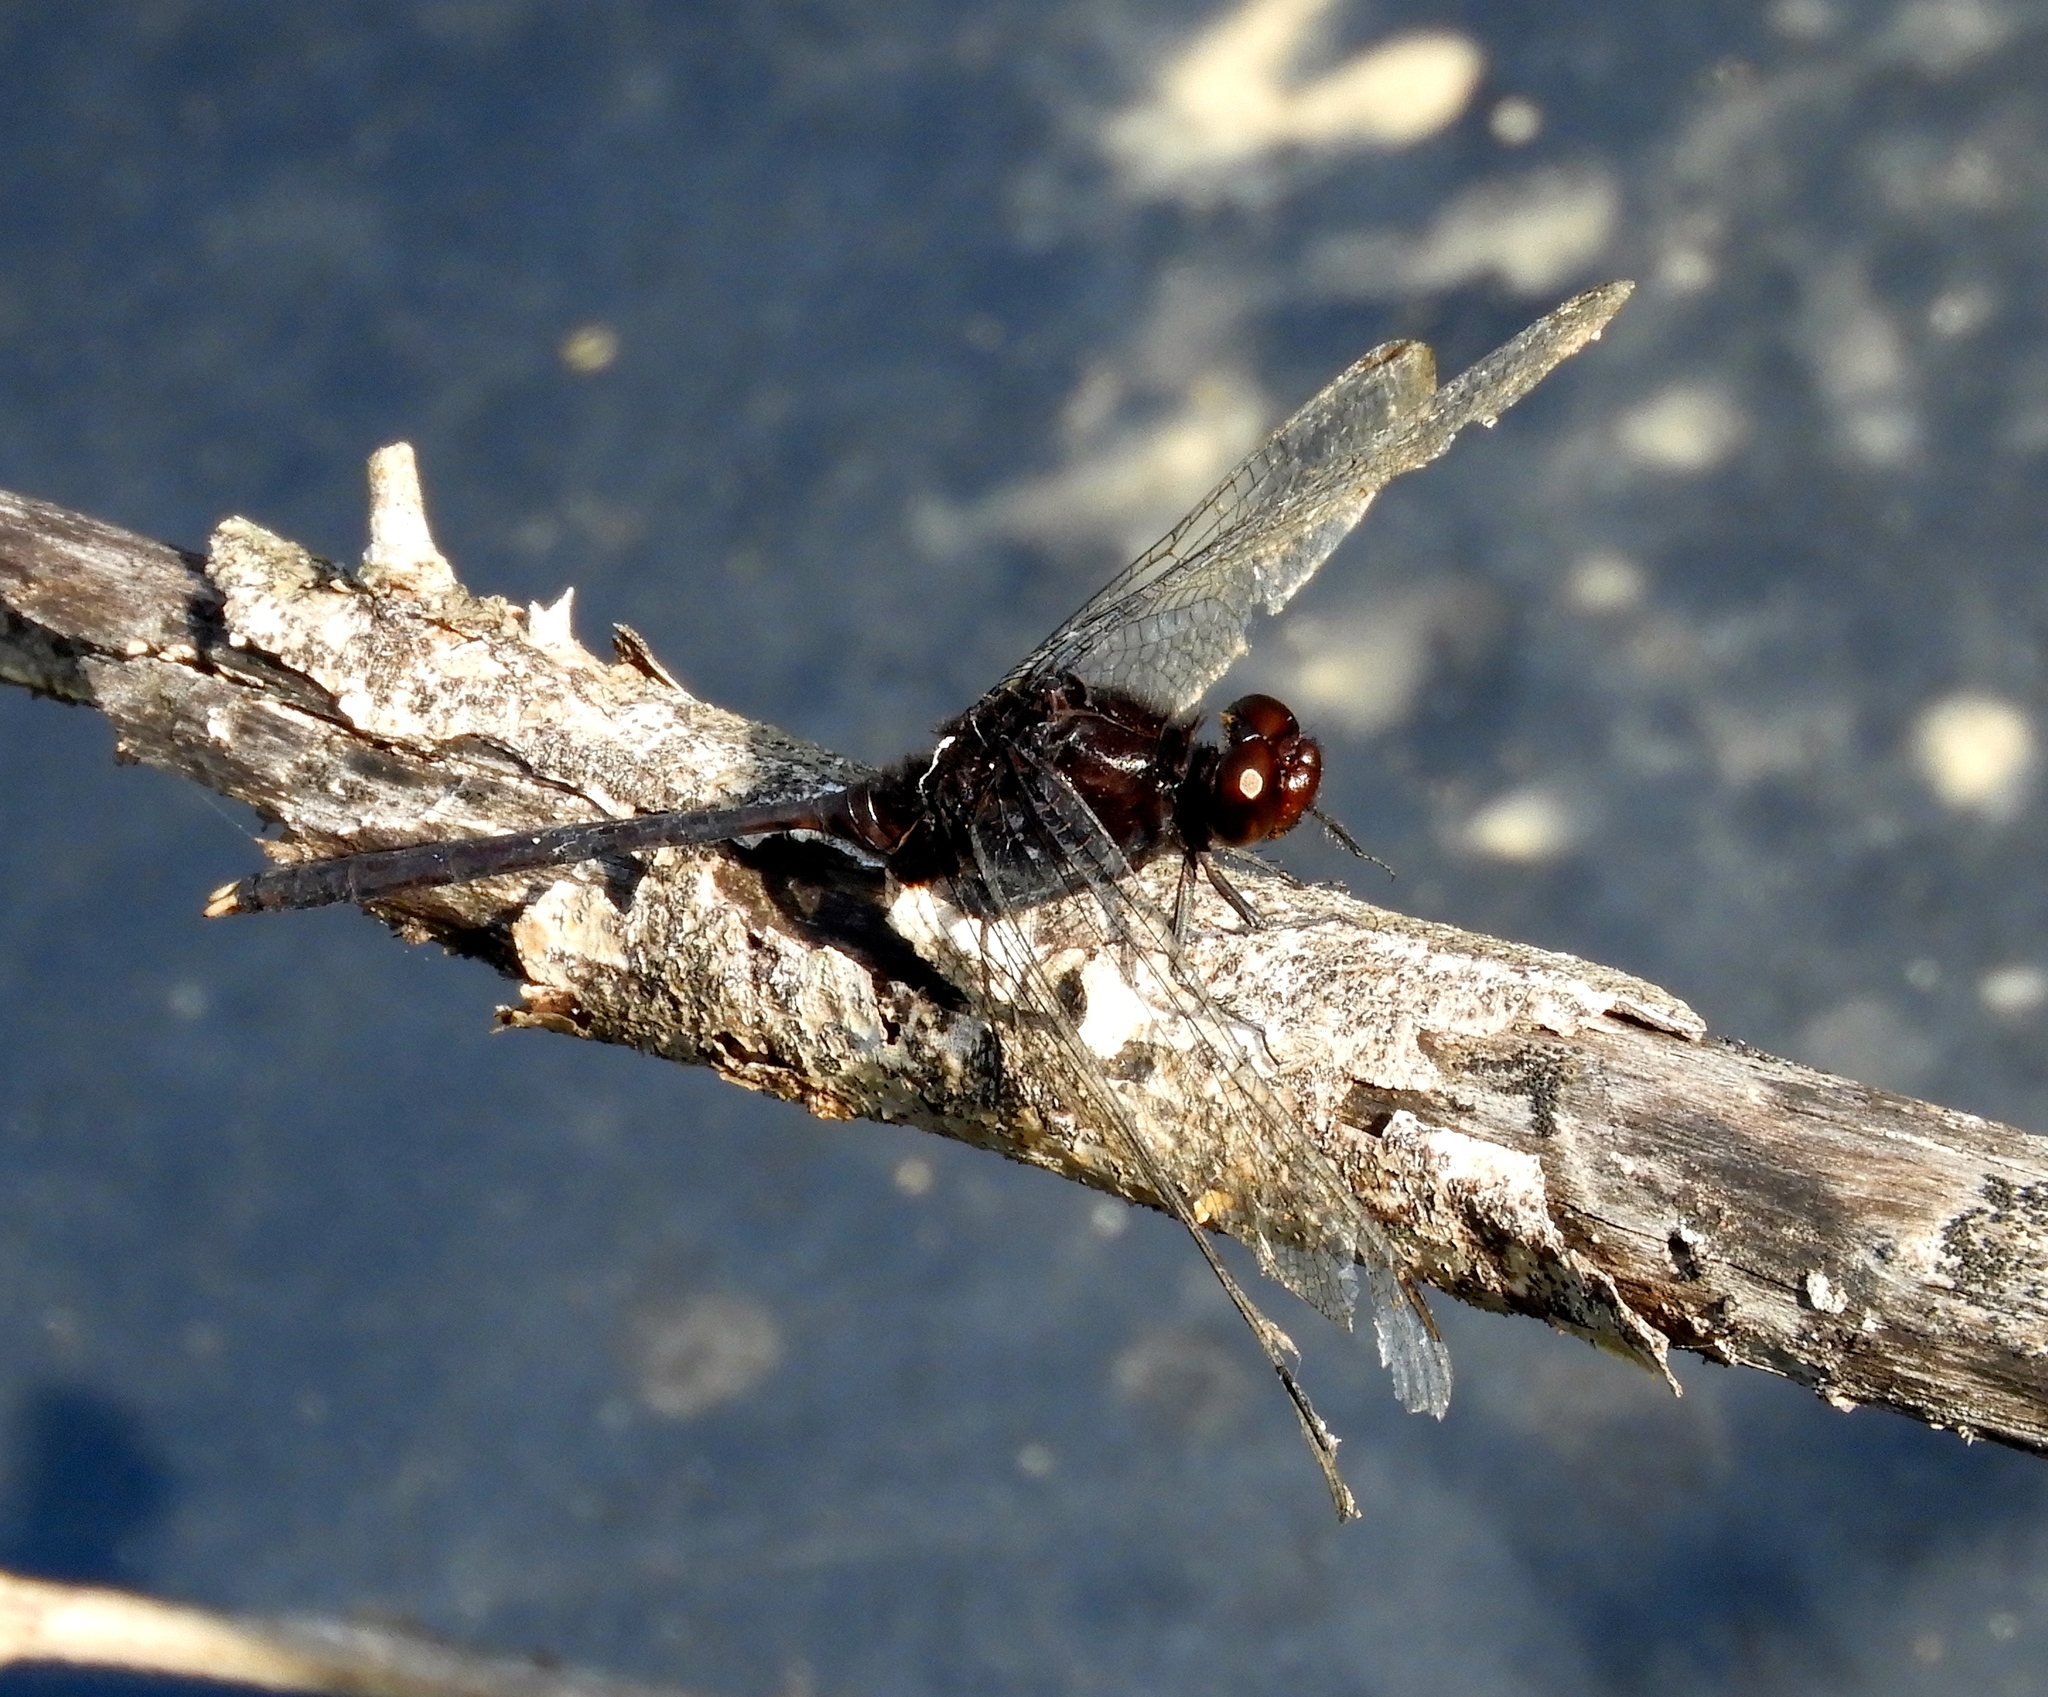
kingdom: Animalia
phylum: Arthropoda
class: Insecta
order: Odonata
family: Libellulidae
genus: Erythemis
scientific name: Erythemis plebeja
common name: Pin-tailed pondhawk
